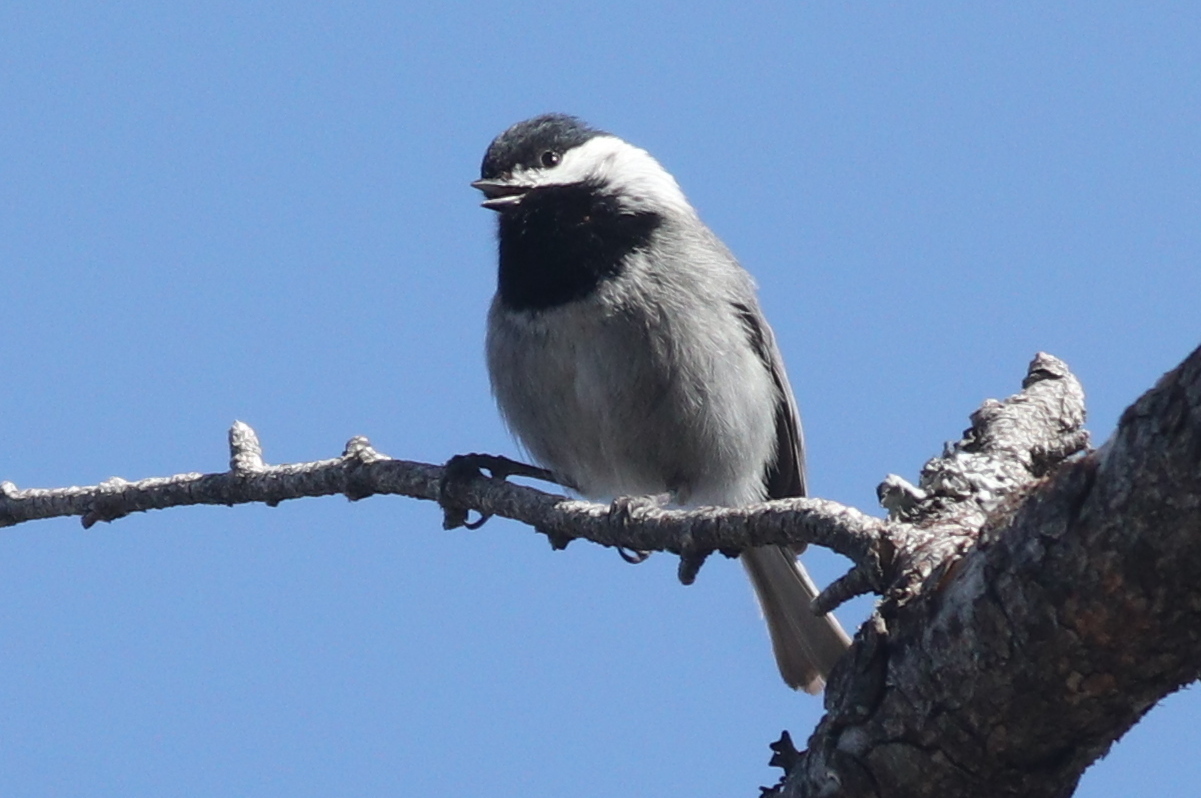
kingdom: Animalia
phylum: Chordata
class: Aves
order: Passeriformes
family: Paridae
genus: Poecile
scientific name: Poecile sclateri
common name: Mexican chickadee
